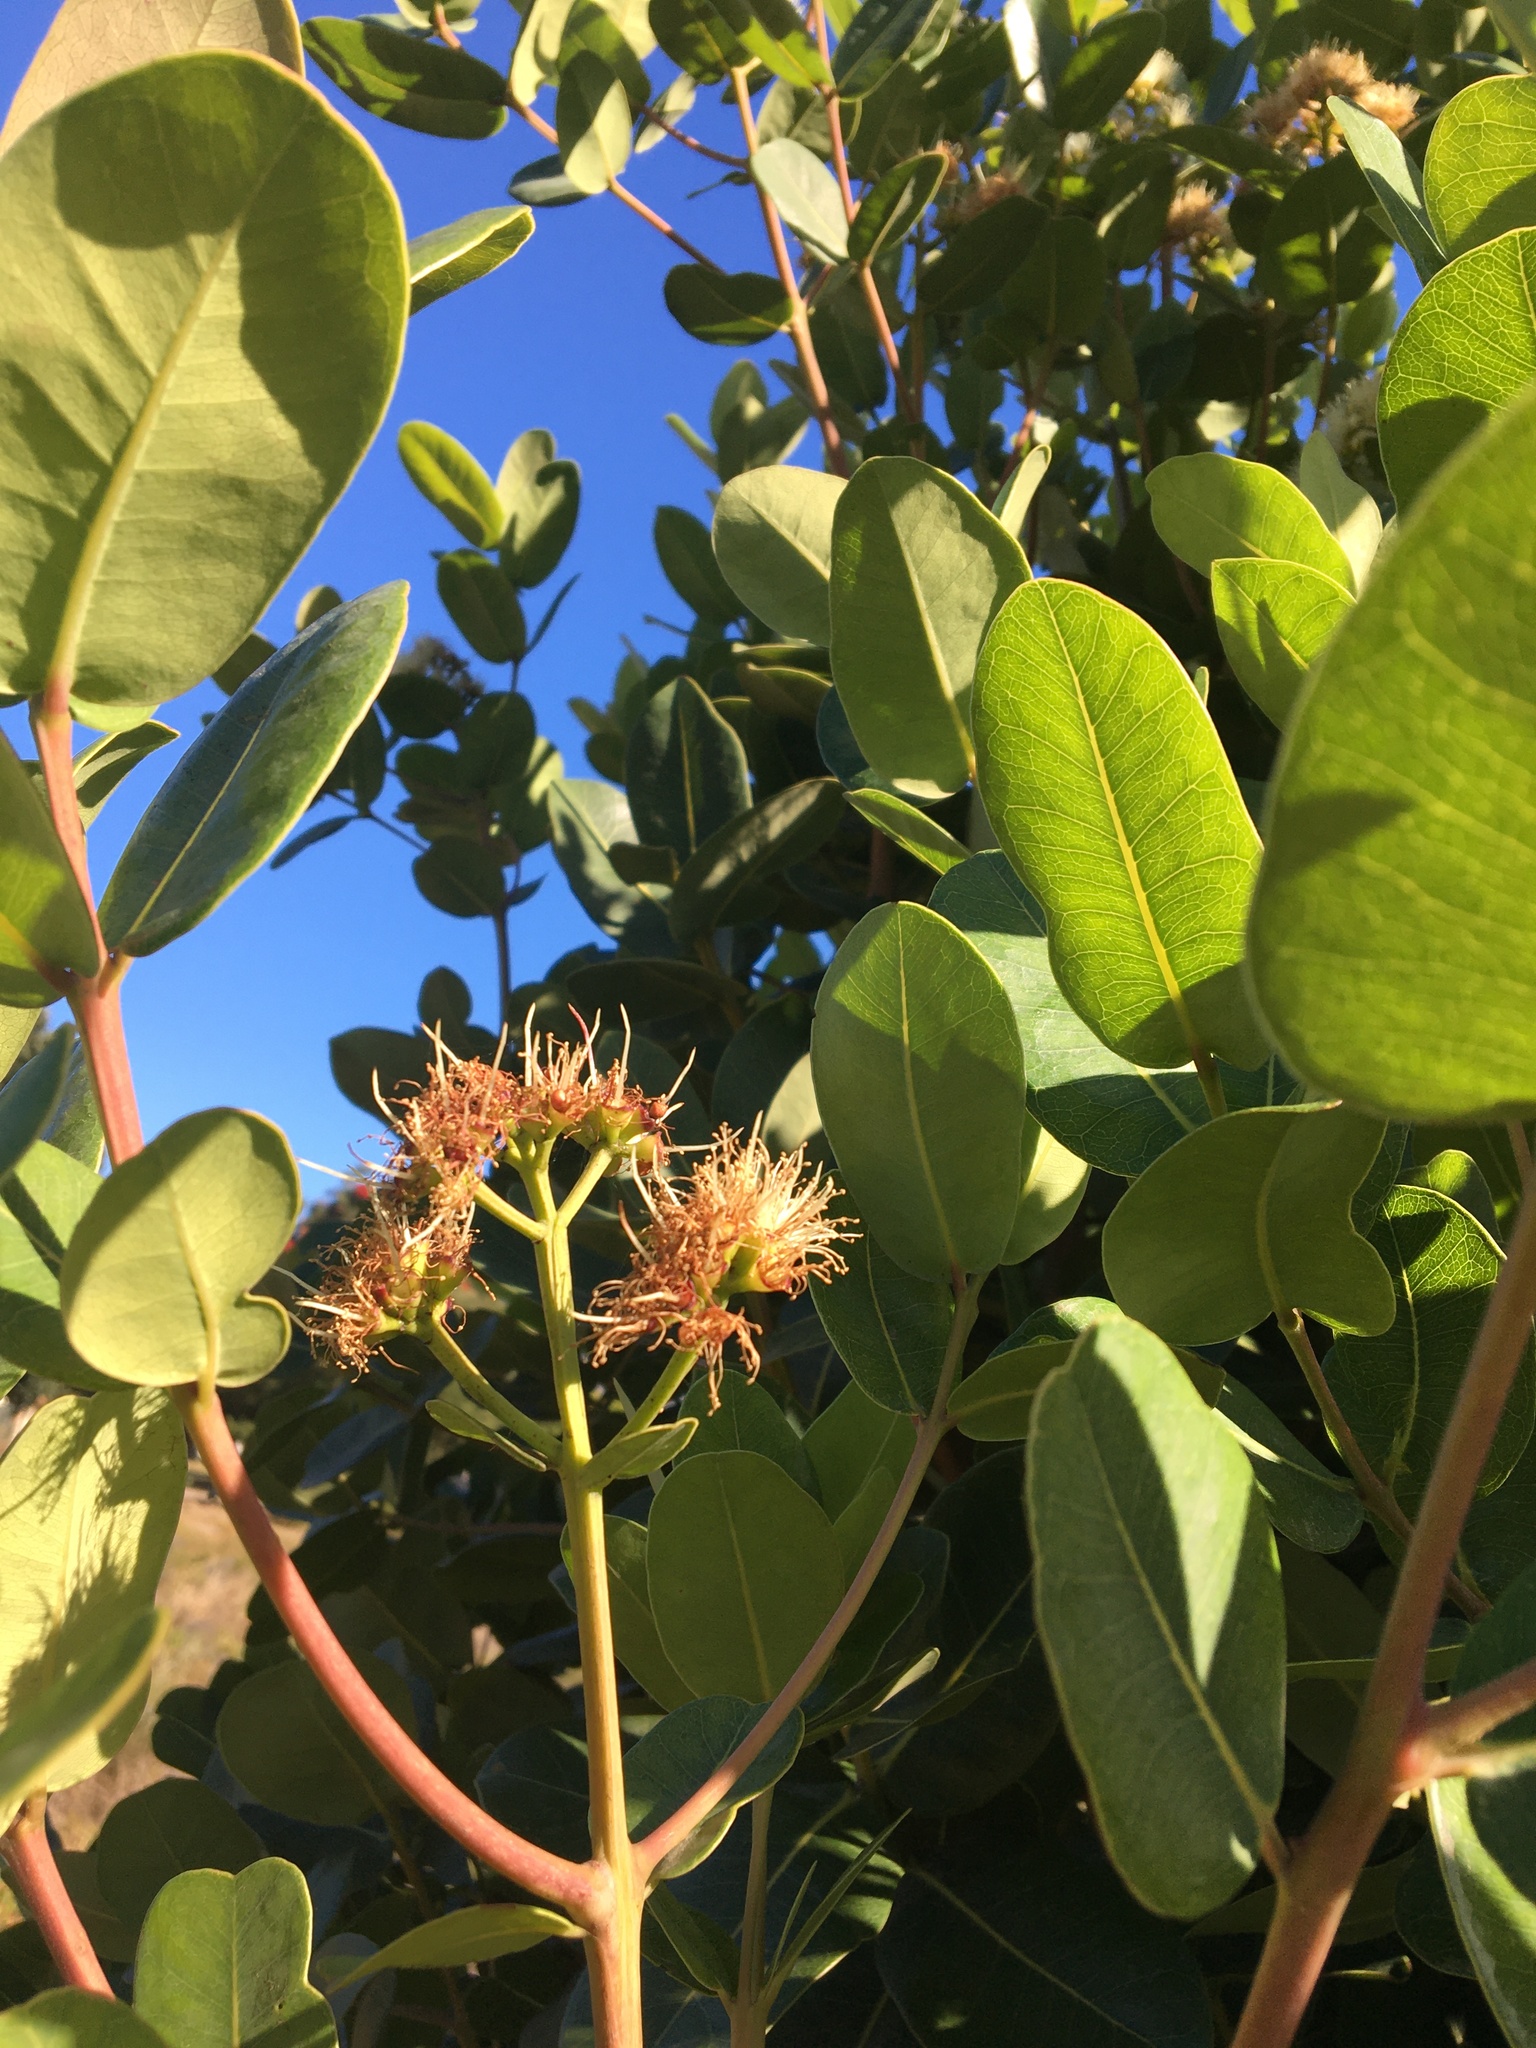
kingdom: Plantae
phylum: Tracheophyta
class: Magnoliopsida
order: Myrtales
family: Myrtaceae
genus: Syzygium
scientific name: Syzygium cordatum
